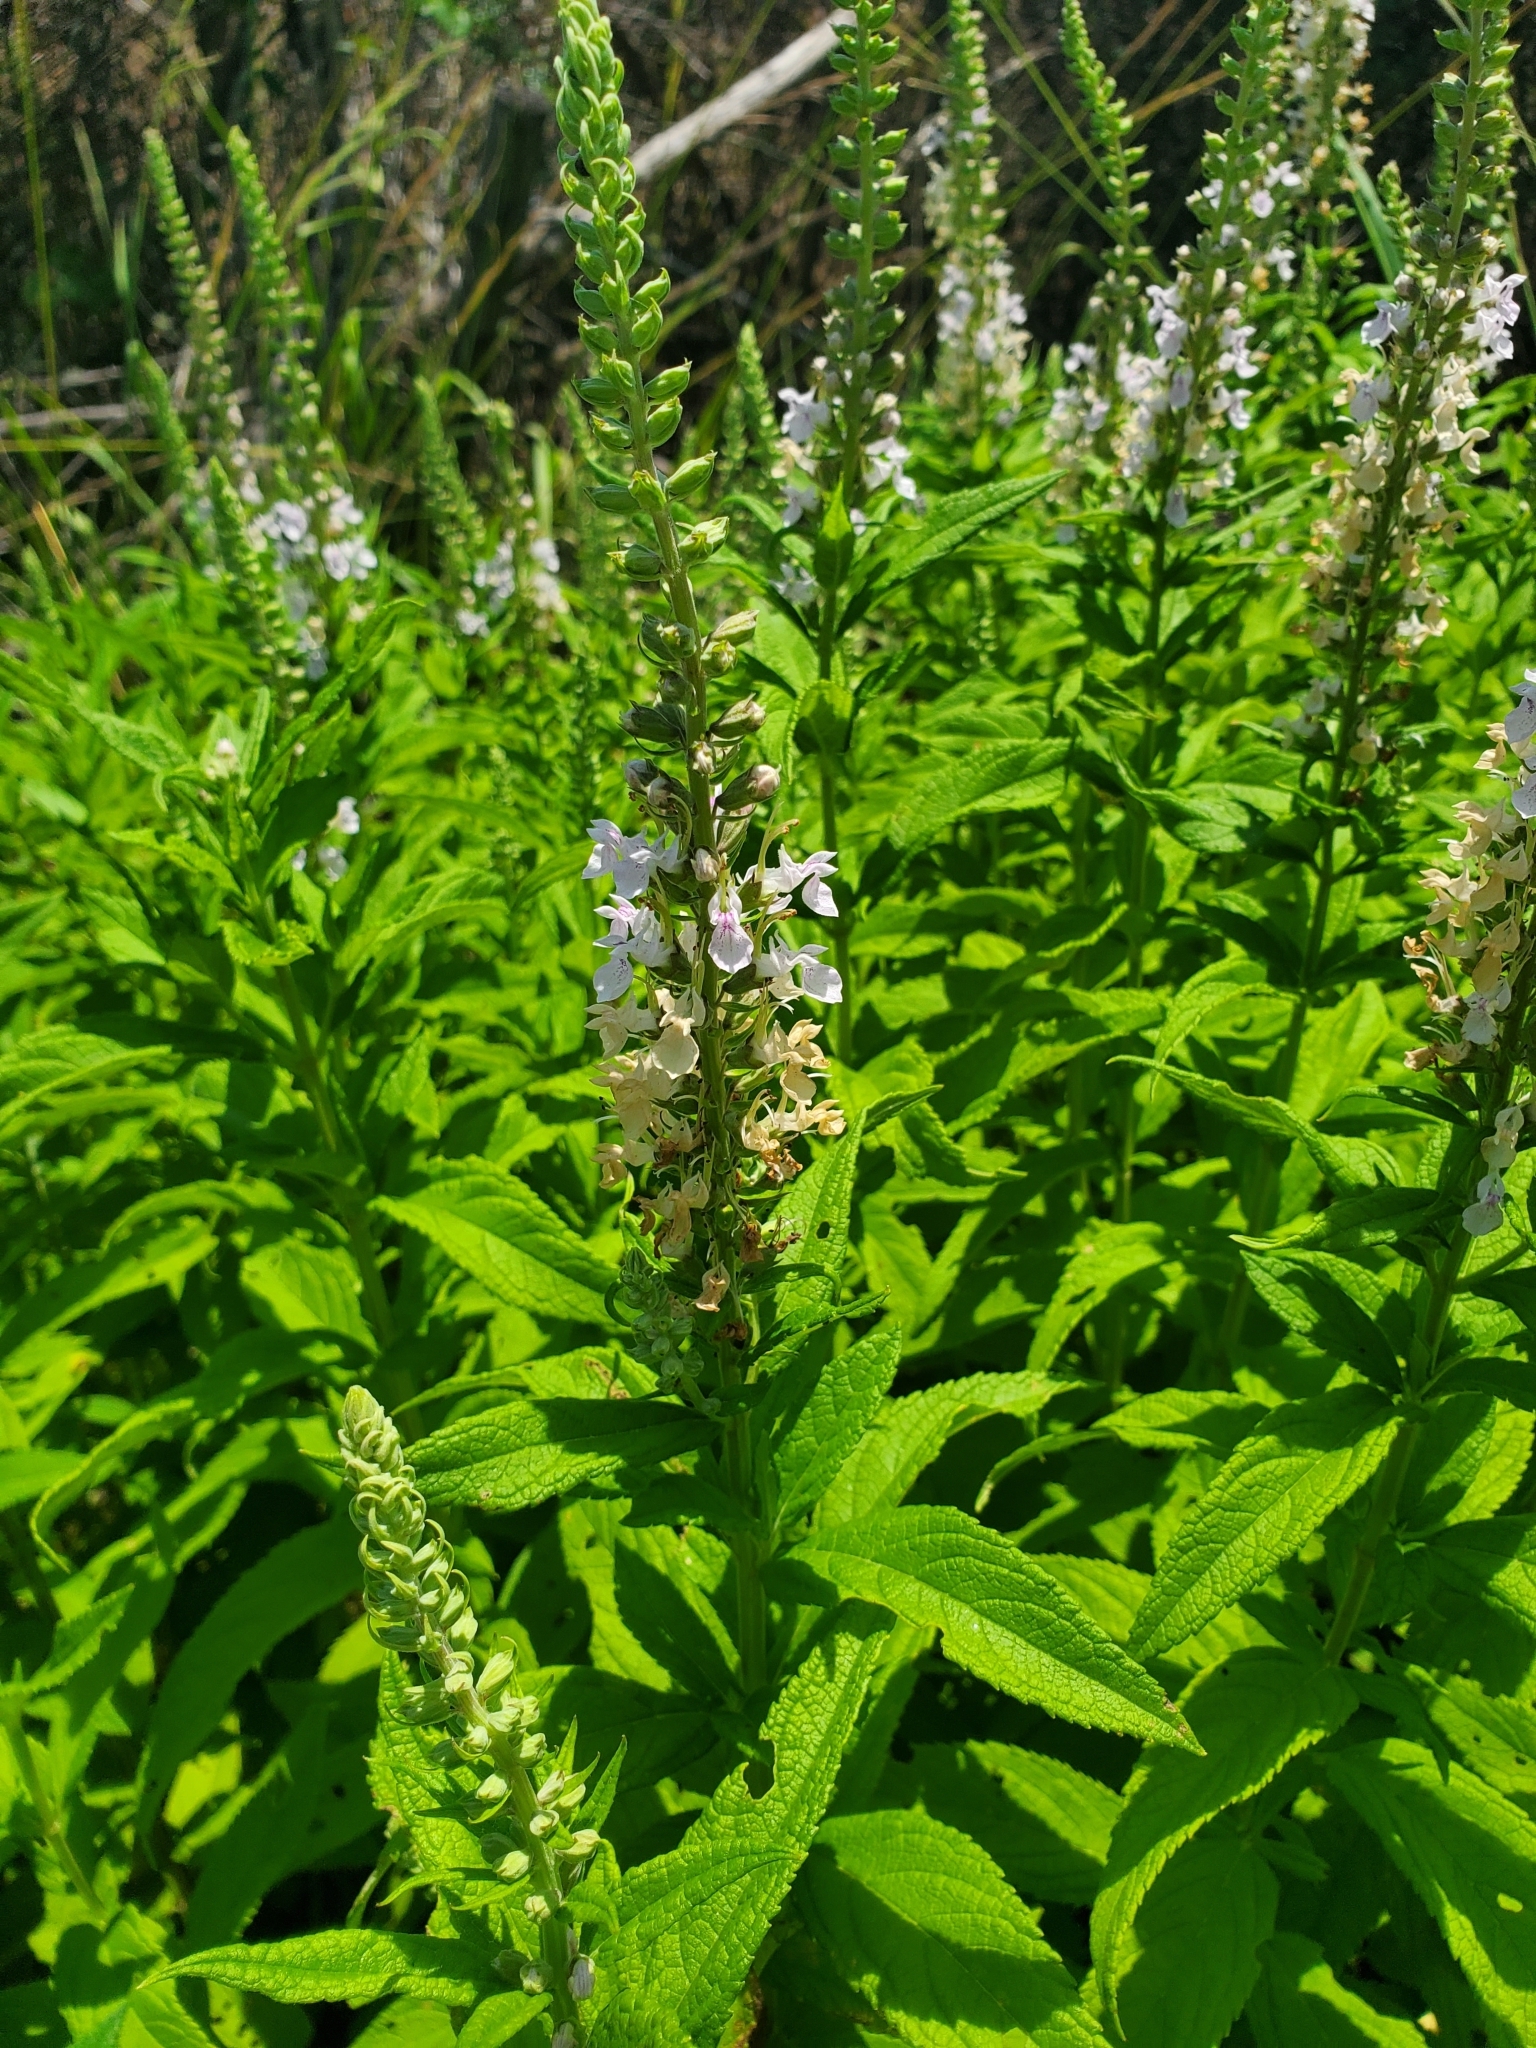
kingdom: Plantae
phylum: Tracheophyta
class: Magnoliopsida
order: Lamiales
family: Lamiaceae
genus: Teucrium
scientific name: Teucrium canadense
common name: American germander
